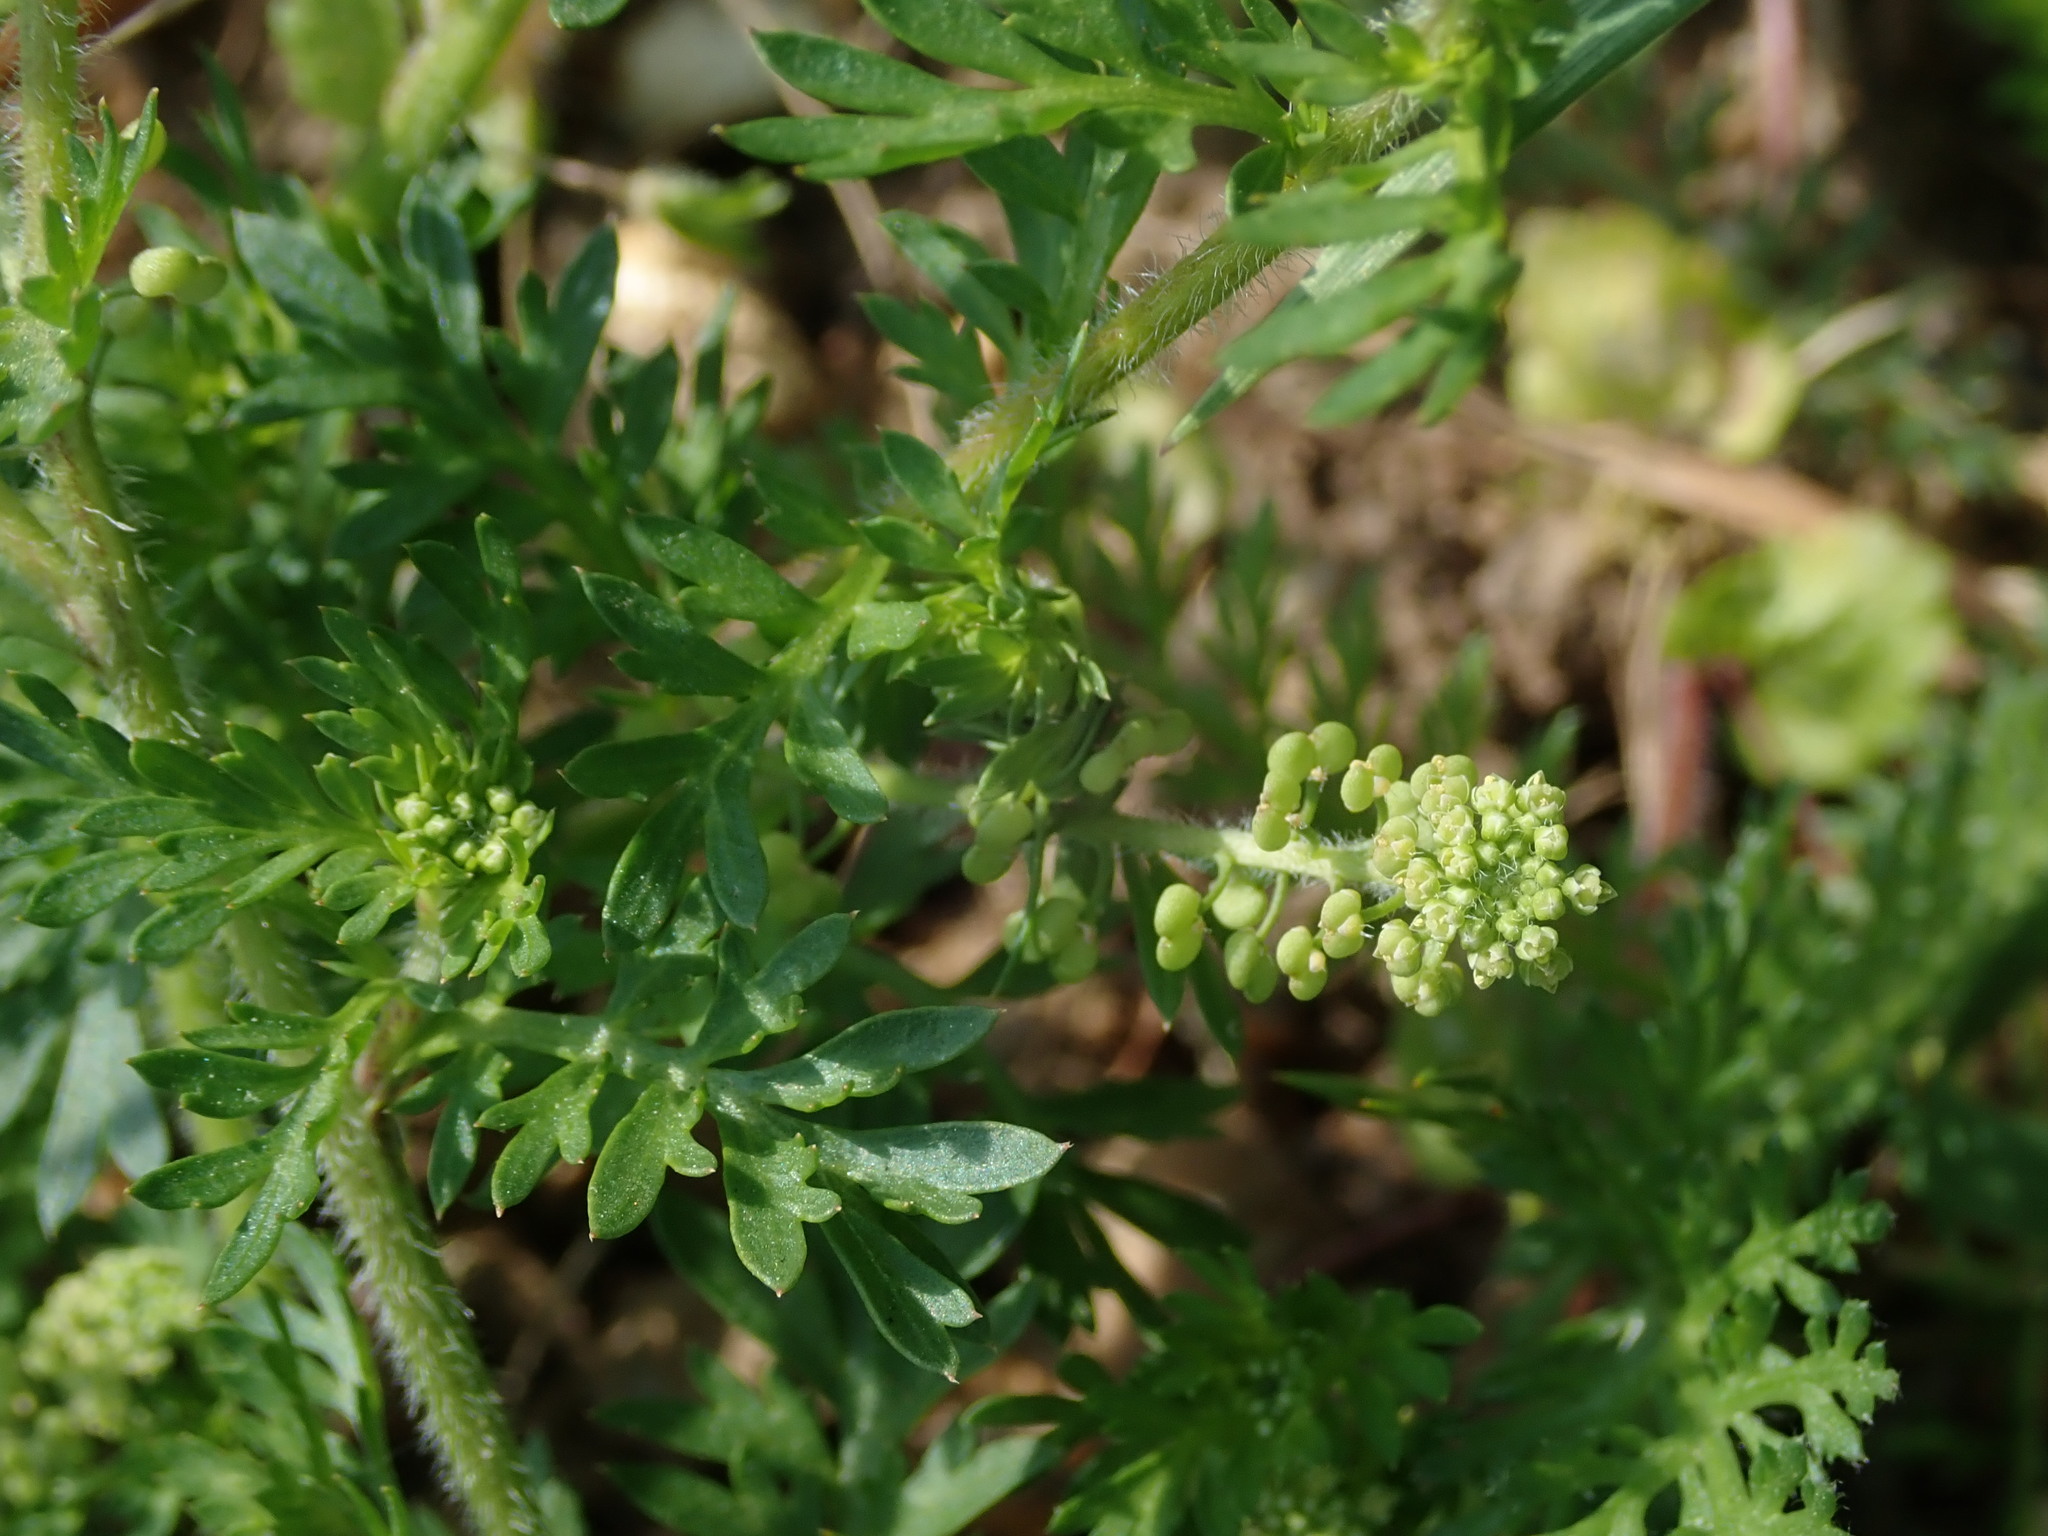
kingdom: Plantae
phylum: Tracheophyta
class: Magnoliopsida
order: Brassicales
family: Brassicaceae
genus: Lepidium
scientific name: Lepidium didymum
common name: Lesser swinecress
